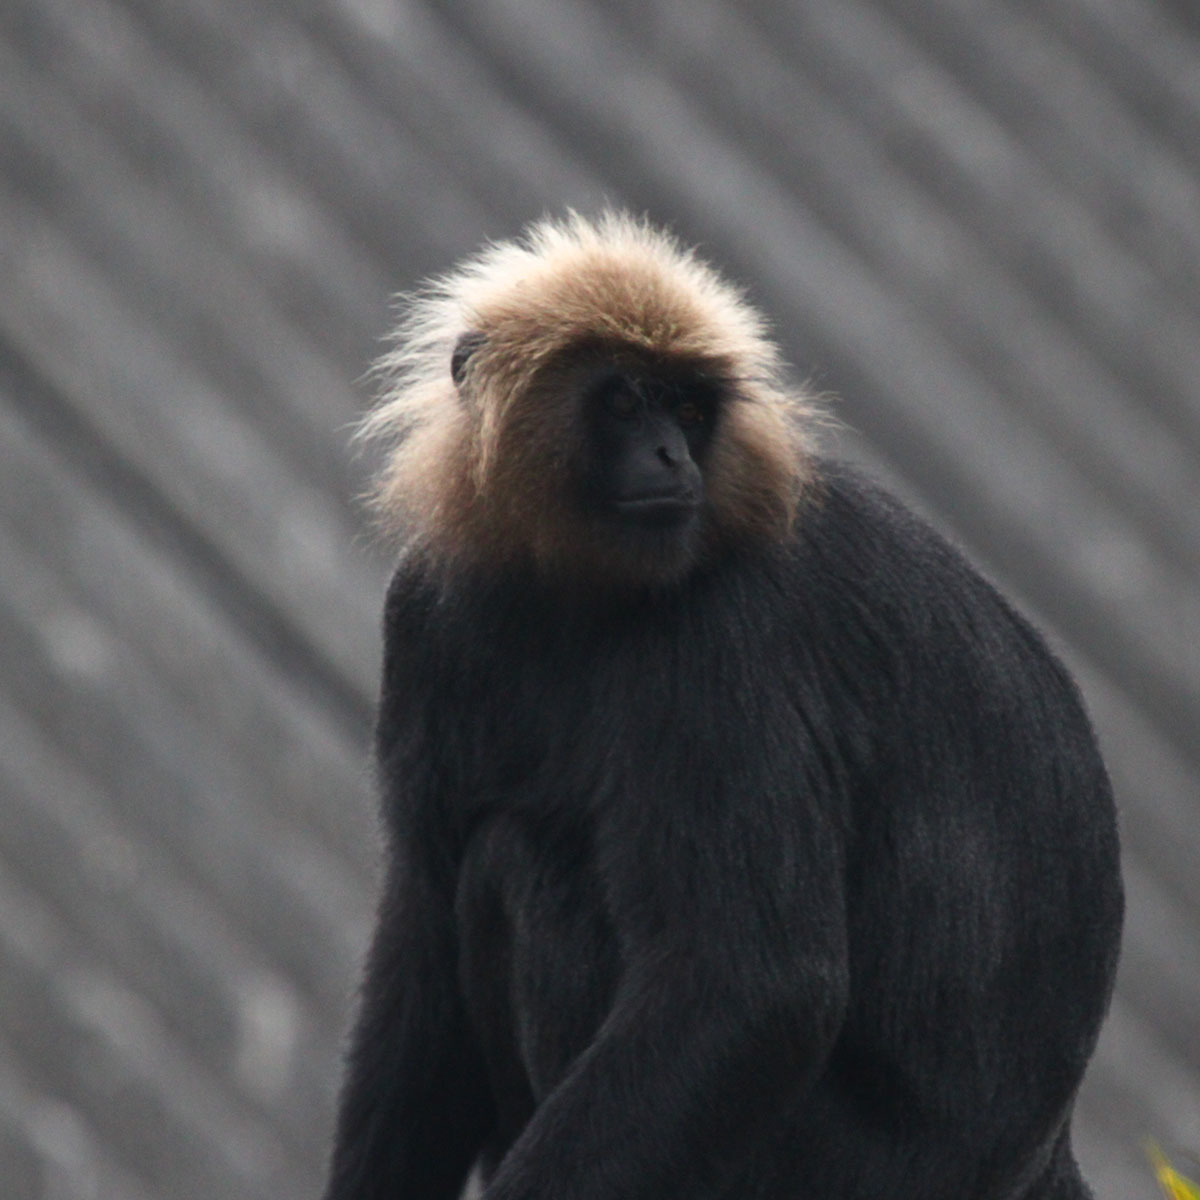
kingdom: Animalia
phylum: Chordata
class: Mammalia
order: Primates
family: Cercopithecidae
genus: Semnopithecus
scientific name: Semnopithecus johnii
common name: Nilgiri langur
